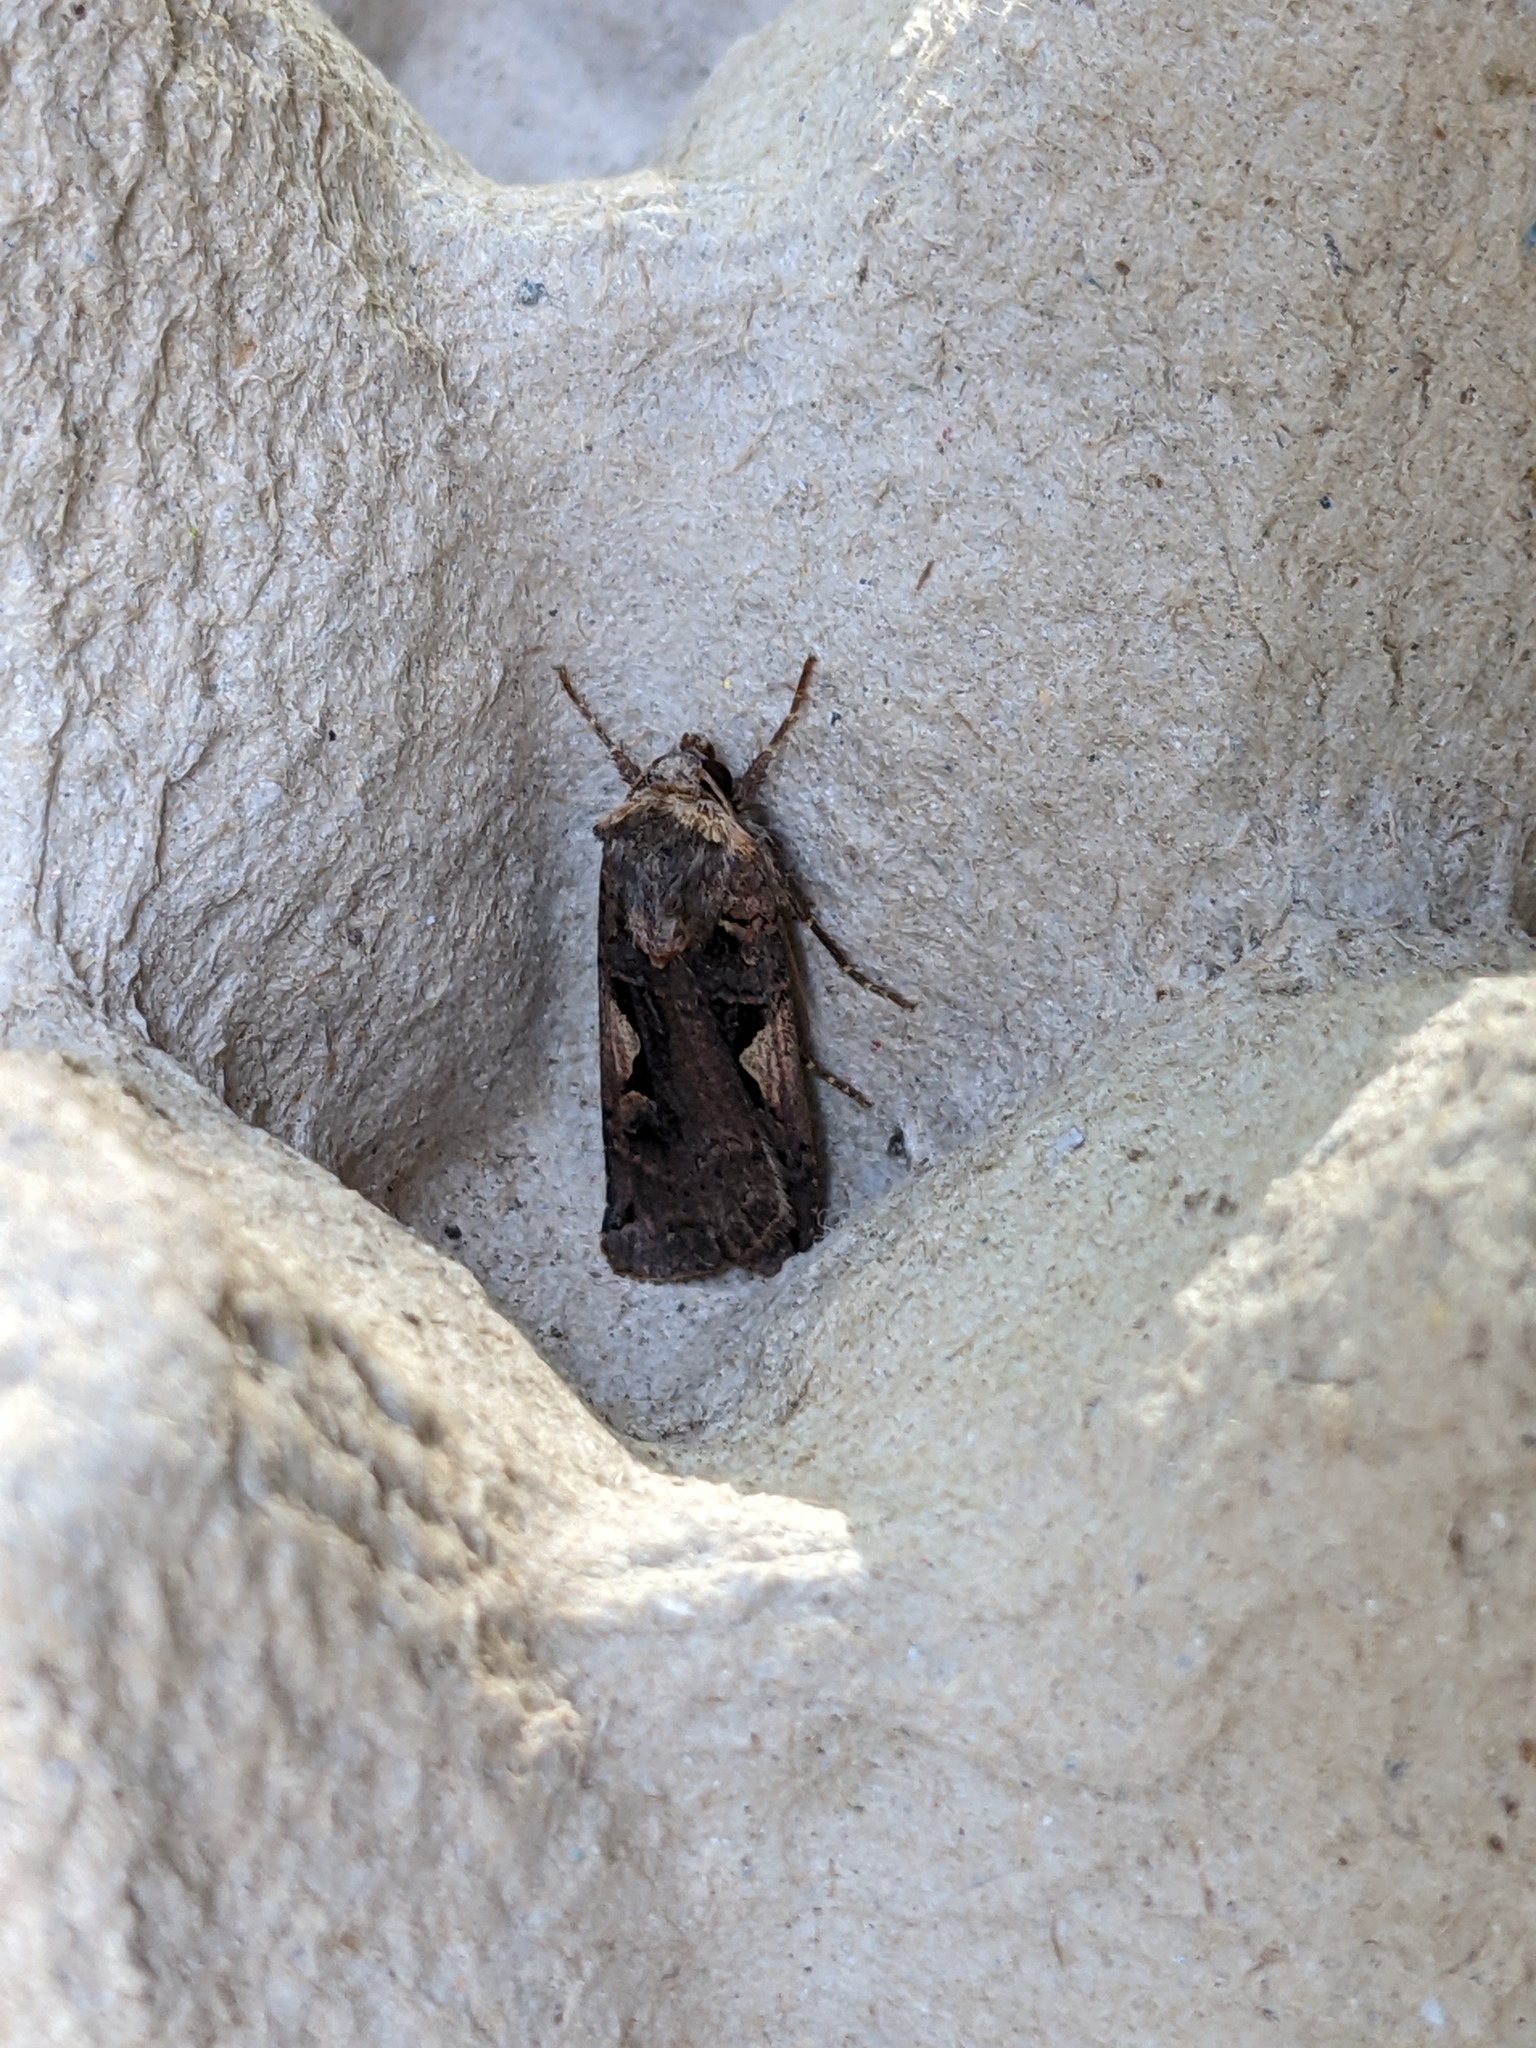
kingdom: Animalia
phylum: Arthropoda
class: Insecta
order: Lepidoptera
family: Noctuidae
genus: Xestia
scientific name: Xestia c-nigrum
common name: Setaceous hebrew character
